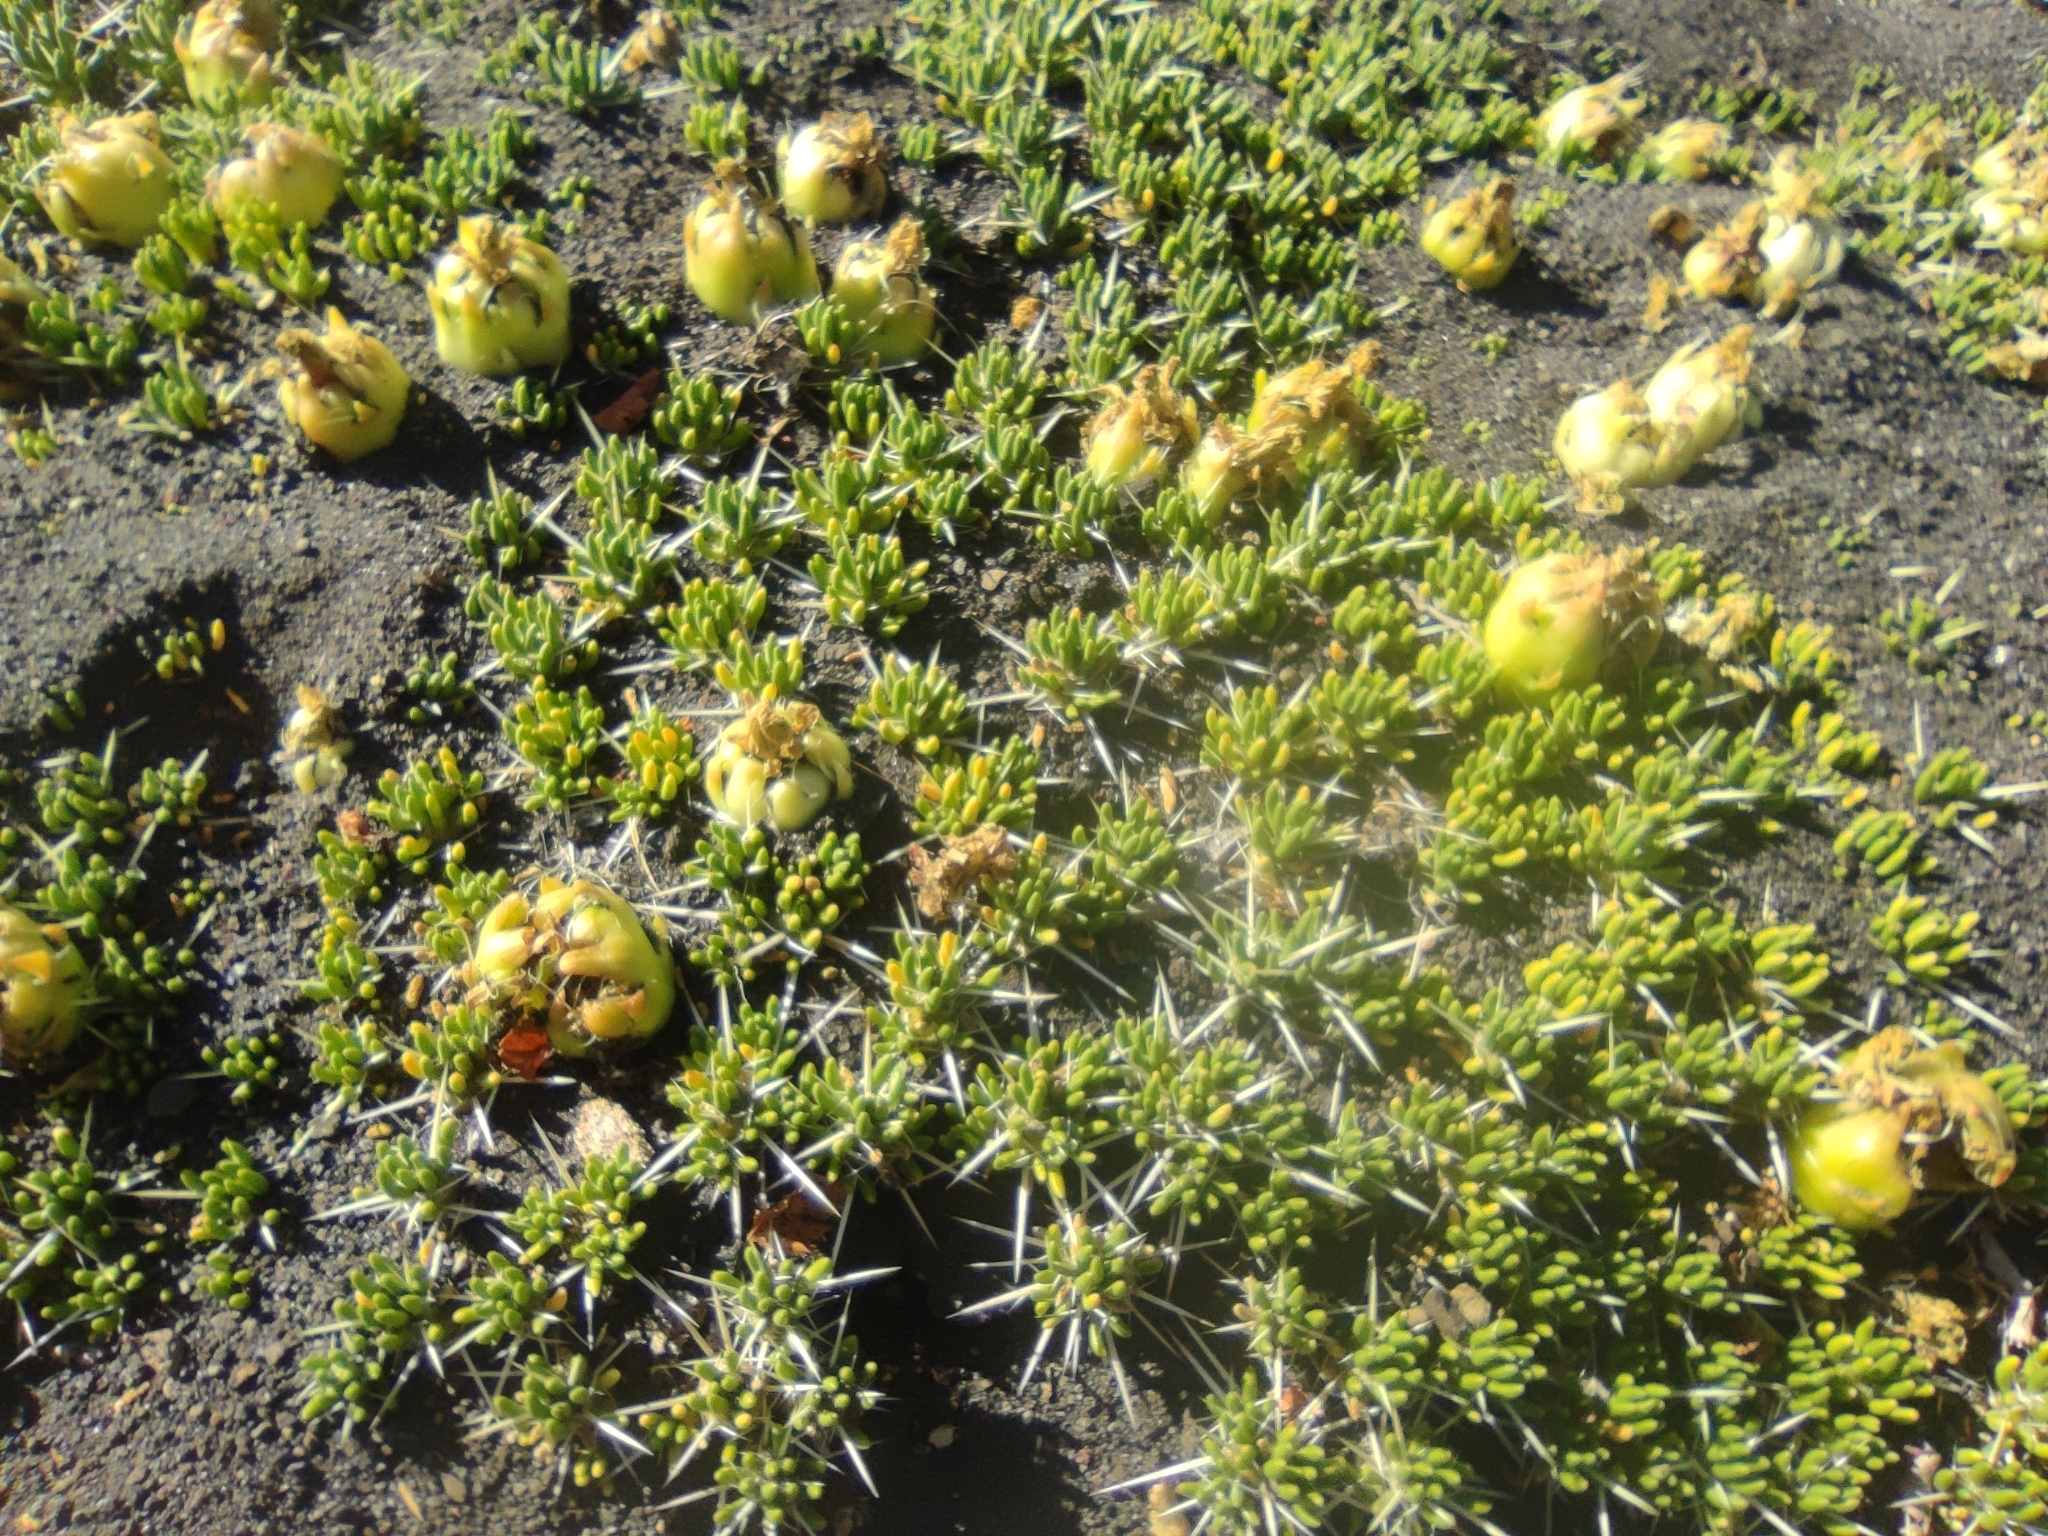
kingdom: Plantae
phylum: Tracheophyta
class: Magnoliopsida
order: Caryophyllales
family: Cactaceae
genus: Maihuenia
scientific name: Maihuenia poeppigii
